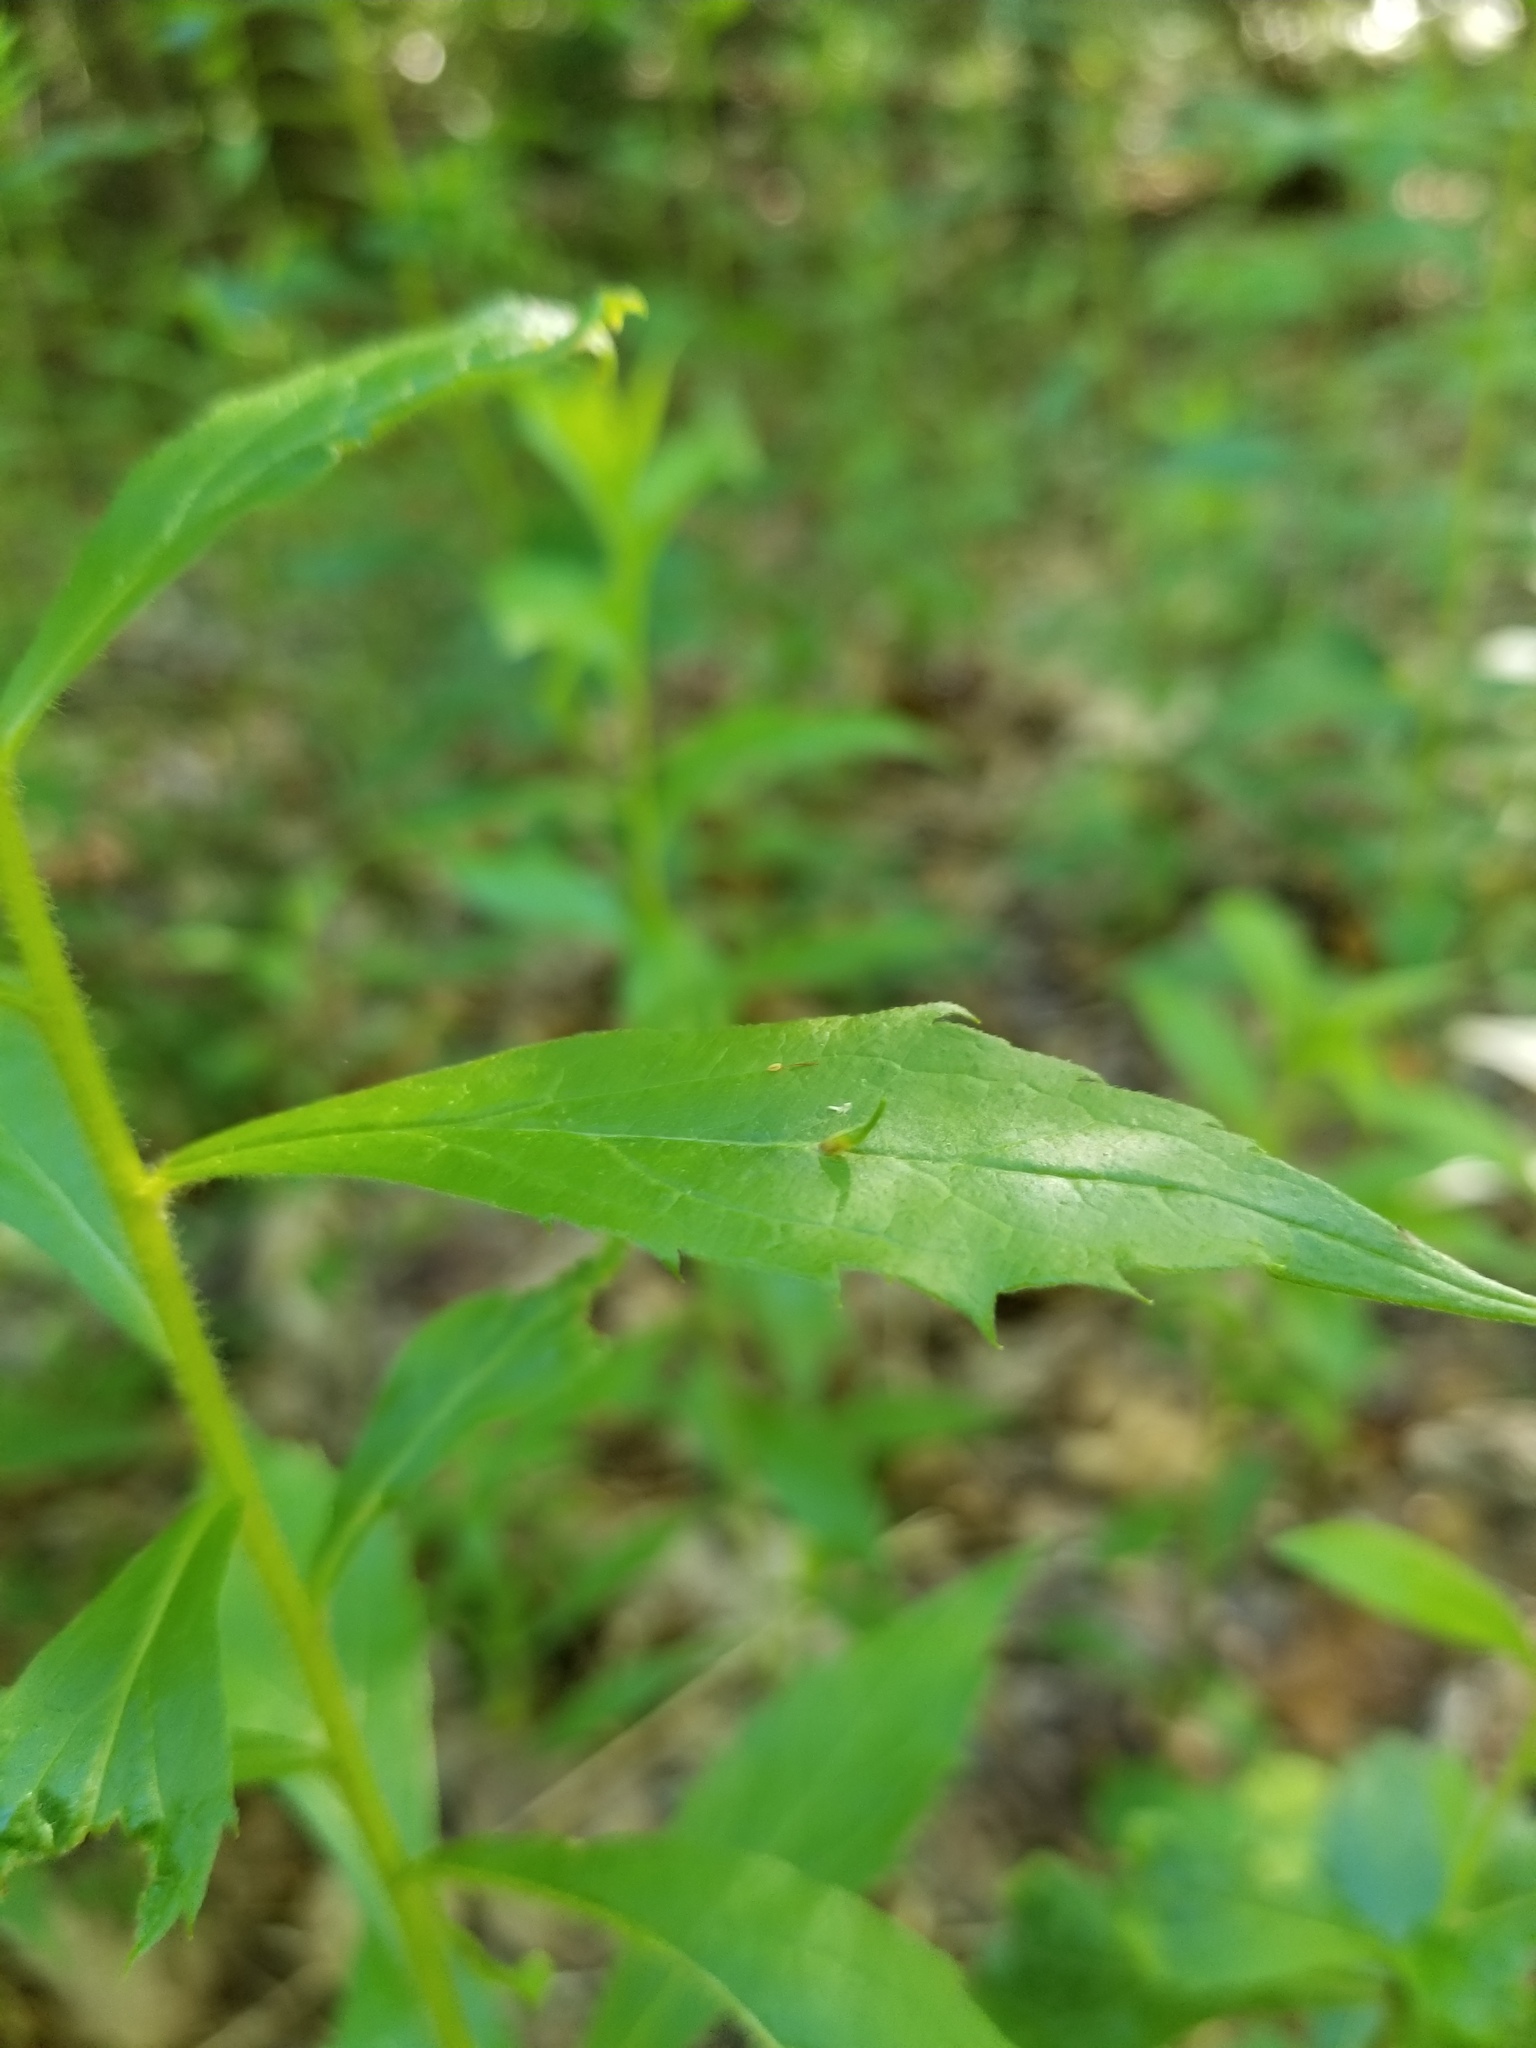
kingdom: Animalia
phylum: Arthropoda
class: Insecta
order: Diptera
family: Cecidomyiidae
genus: Rhopalomyia
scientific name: Rhopalomyia clarkei
